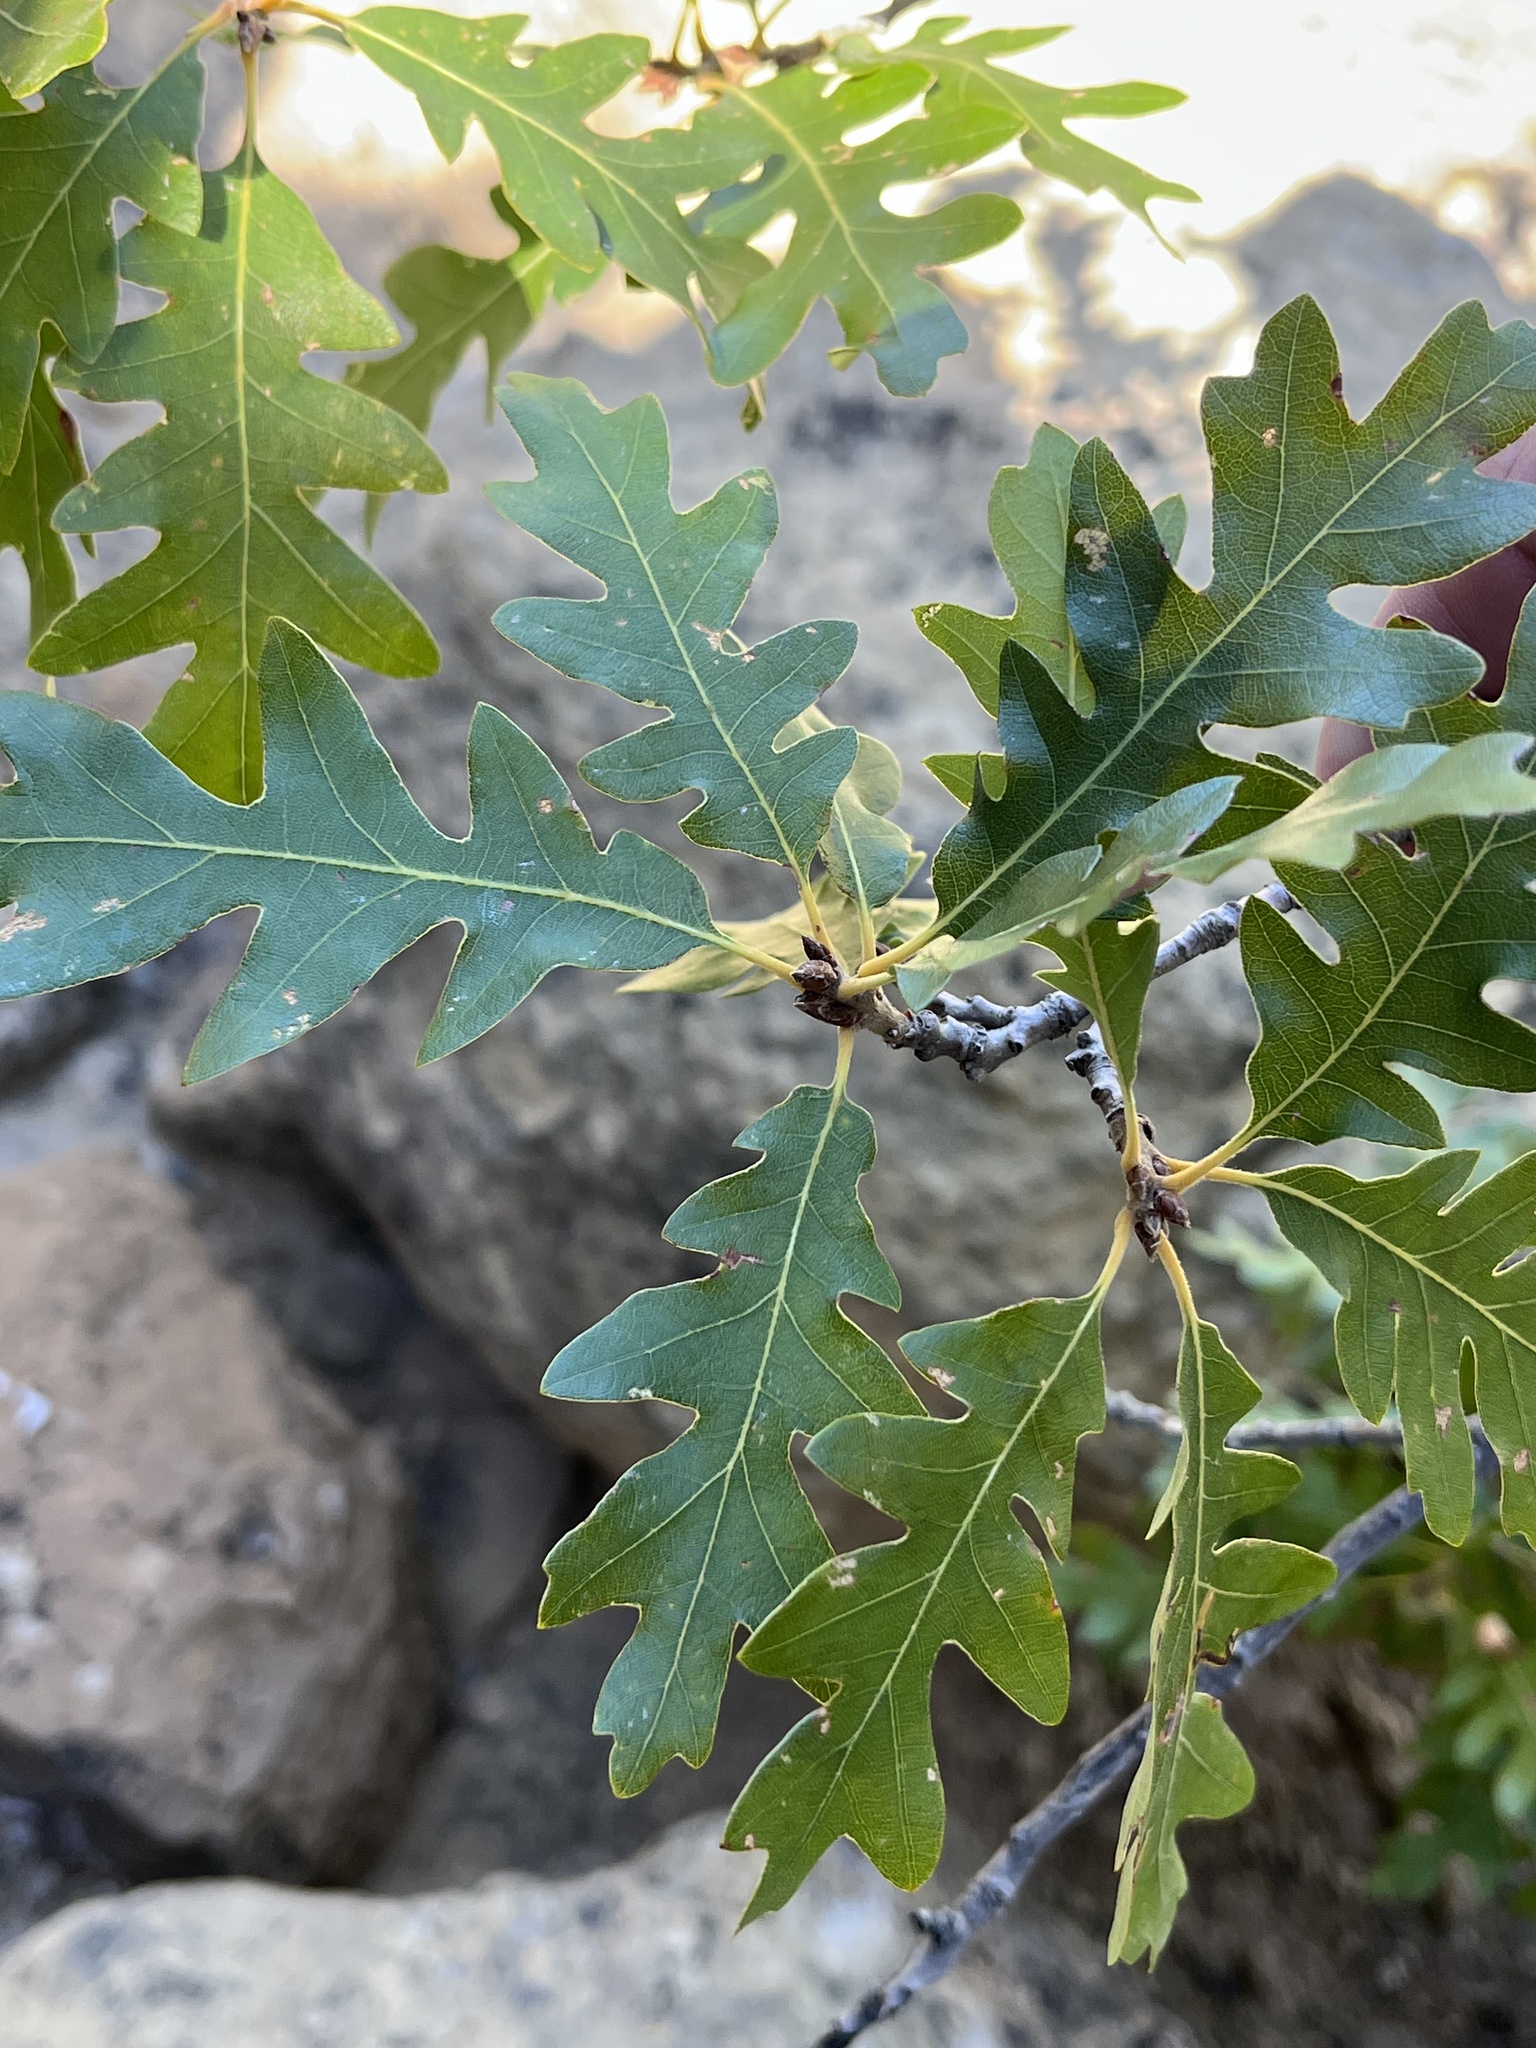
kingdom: Plantae
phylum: Tracheophyta
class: Magnoliopsida
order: Fagales
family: Fagaceae
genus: Quercus
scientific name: Quercus gambelii
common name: Gambel oak
